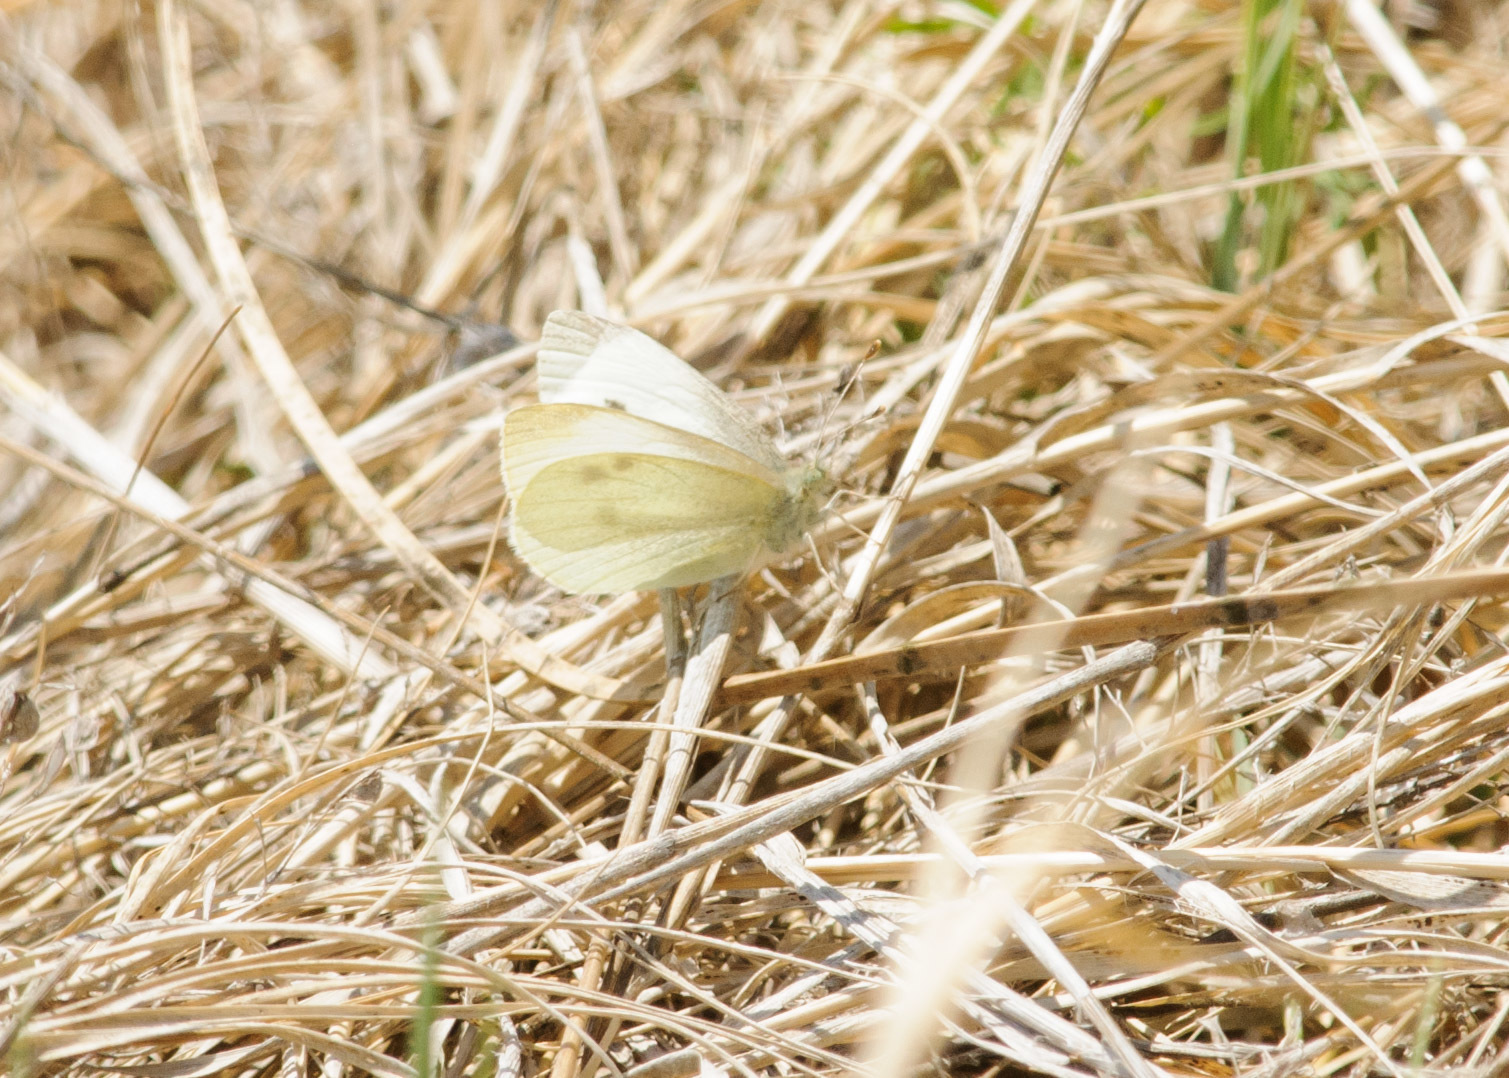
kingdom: Animalia
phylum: Arthropoda
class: Insecta
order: Lepidoptera
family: Pieridae
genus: Pieris
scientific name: Pieris rapae
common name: Small white
